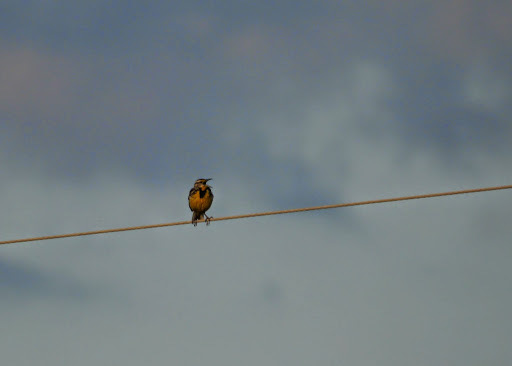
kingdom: Animalia
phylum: Chordata
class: Aves
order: Passeriformes
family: Icteridae
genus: Sturnella
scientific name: Sturnella magna
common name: Eastern meadowlark
